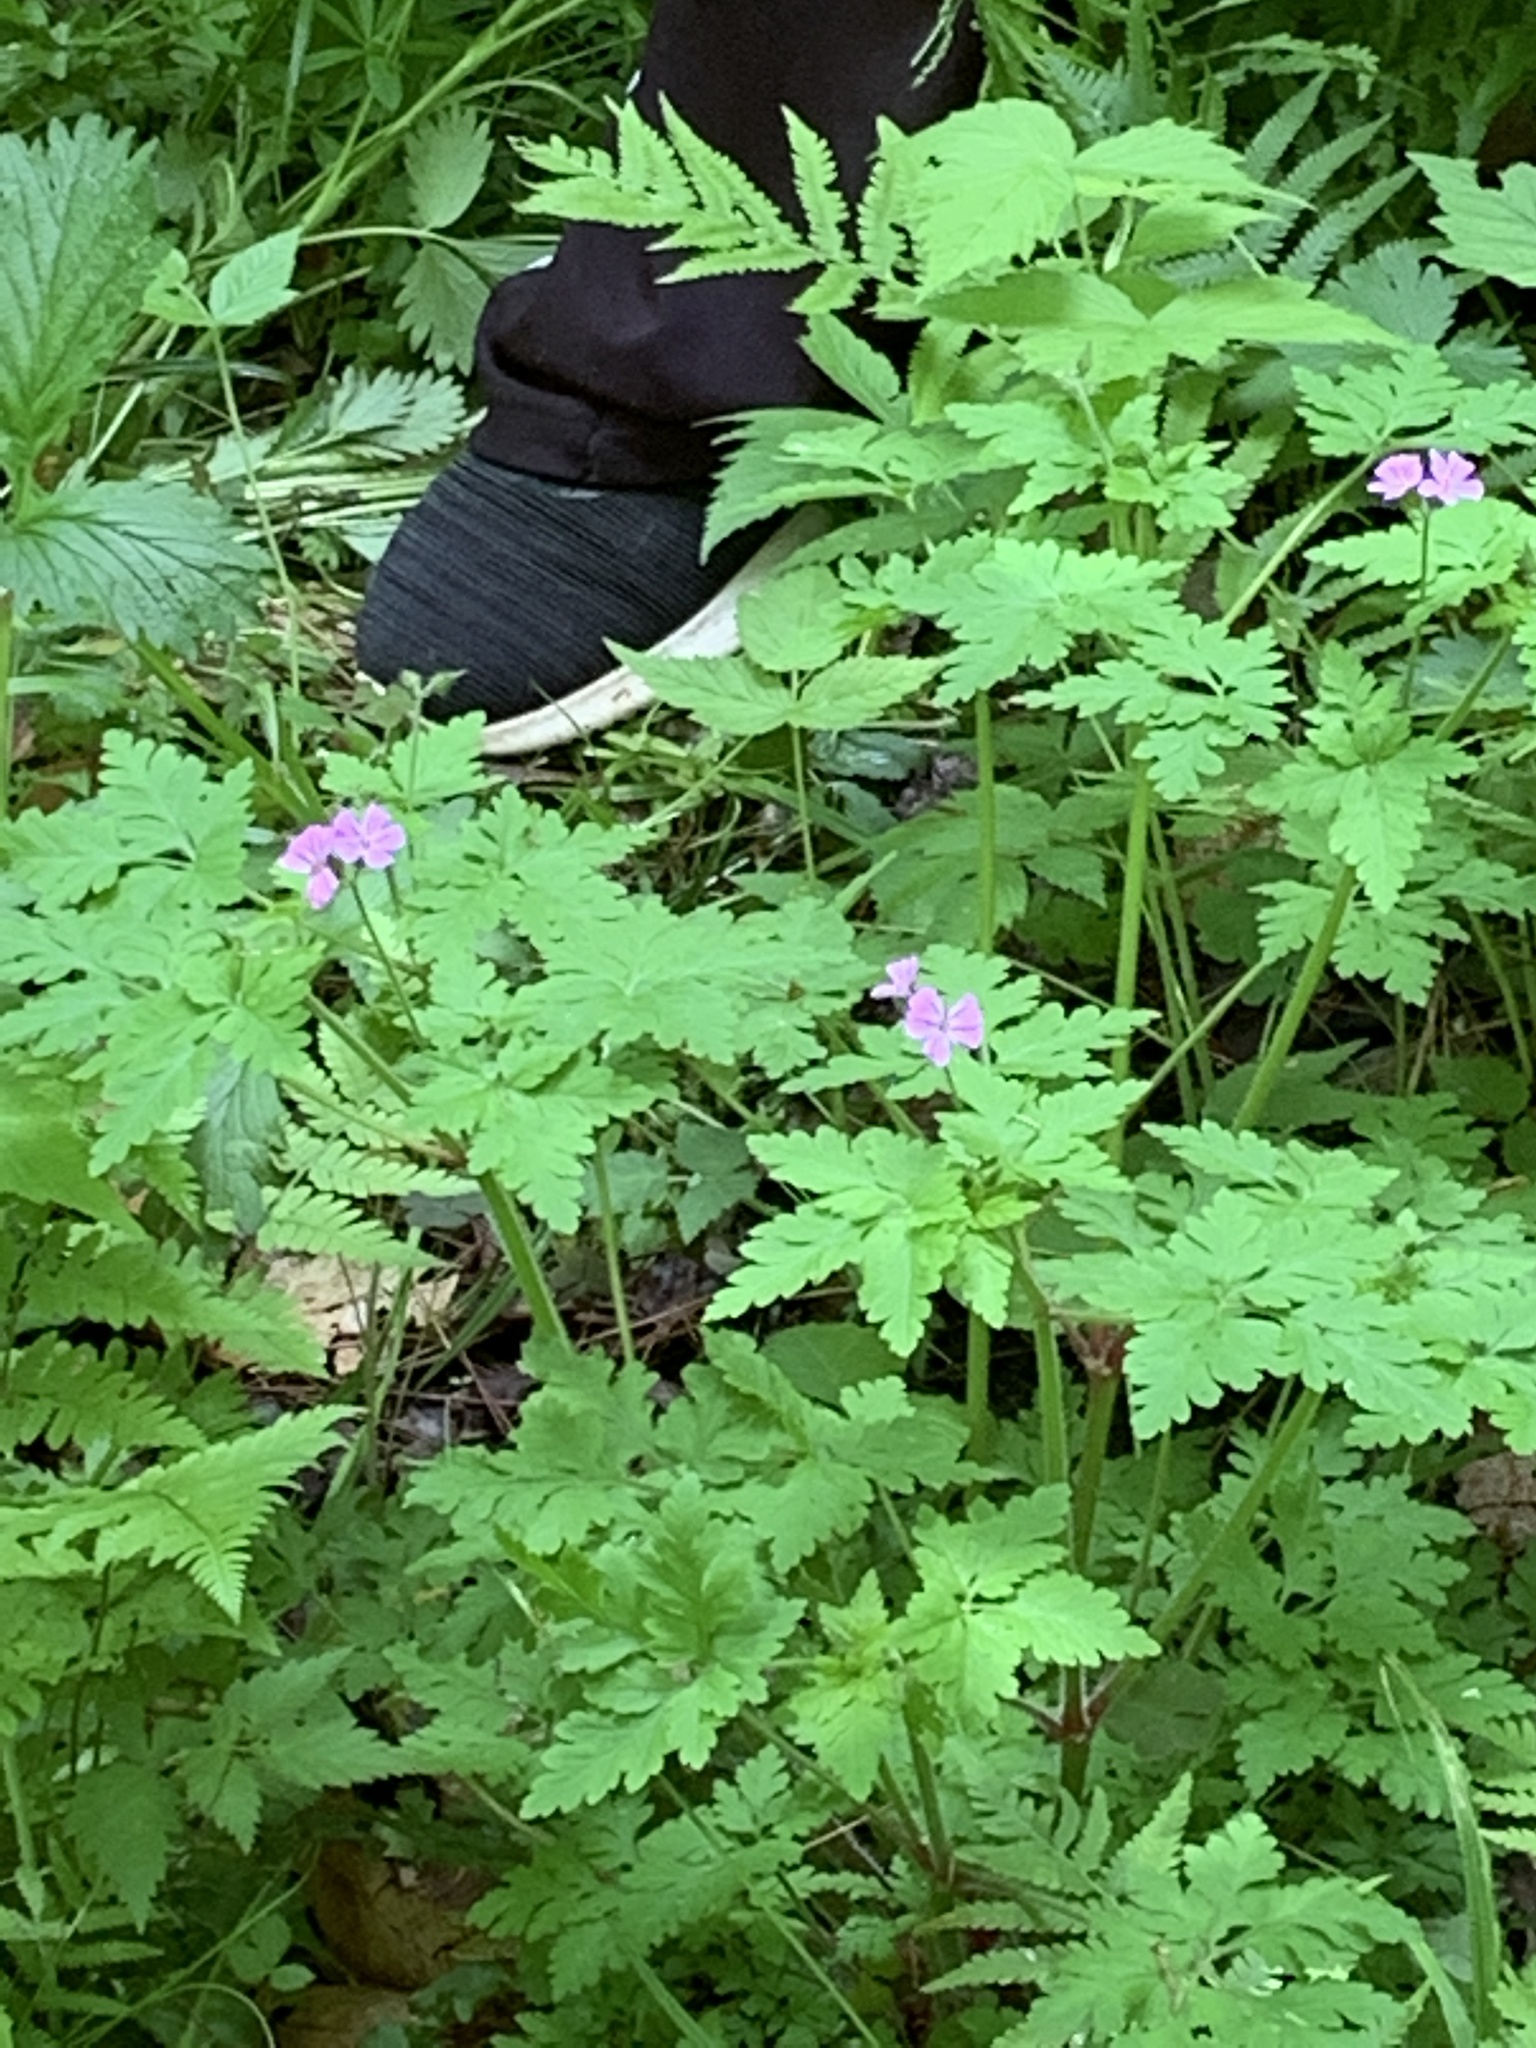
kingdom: Plantae
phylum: Tracheophyta
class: Magnoliopsida
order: Geraniales
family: Geraniaceae
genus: Geranium
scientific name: Geranium robertianum
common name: Herb-robert
